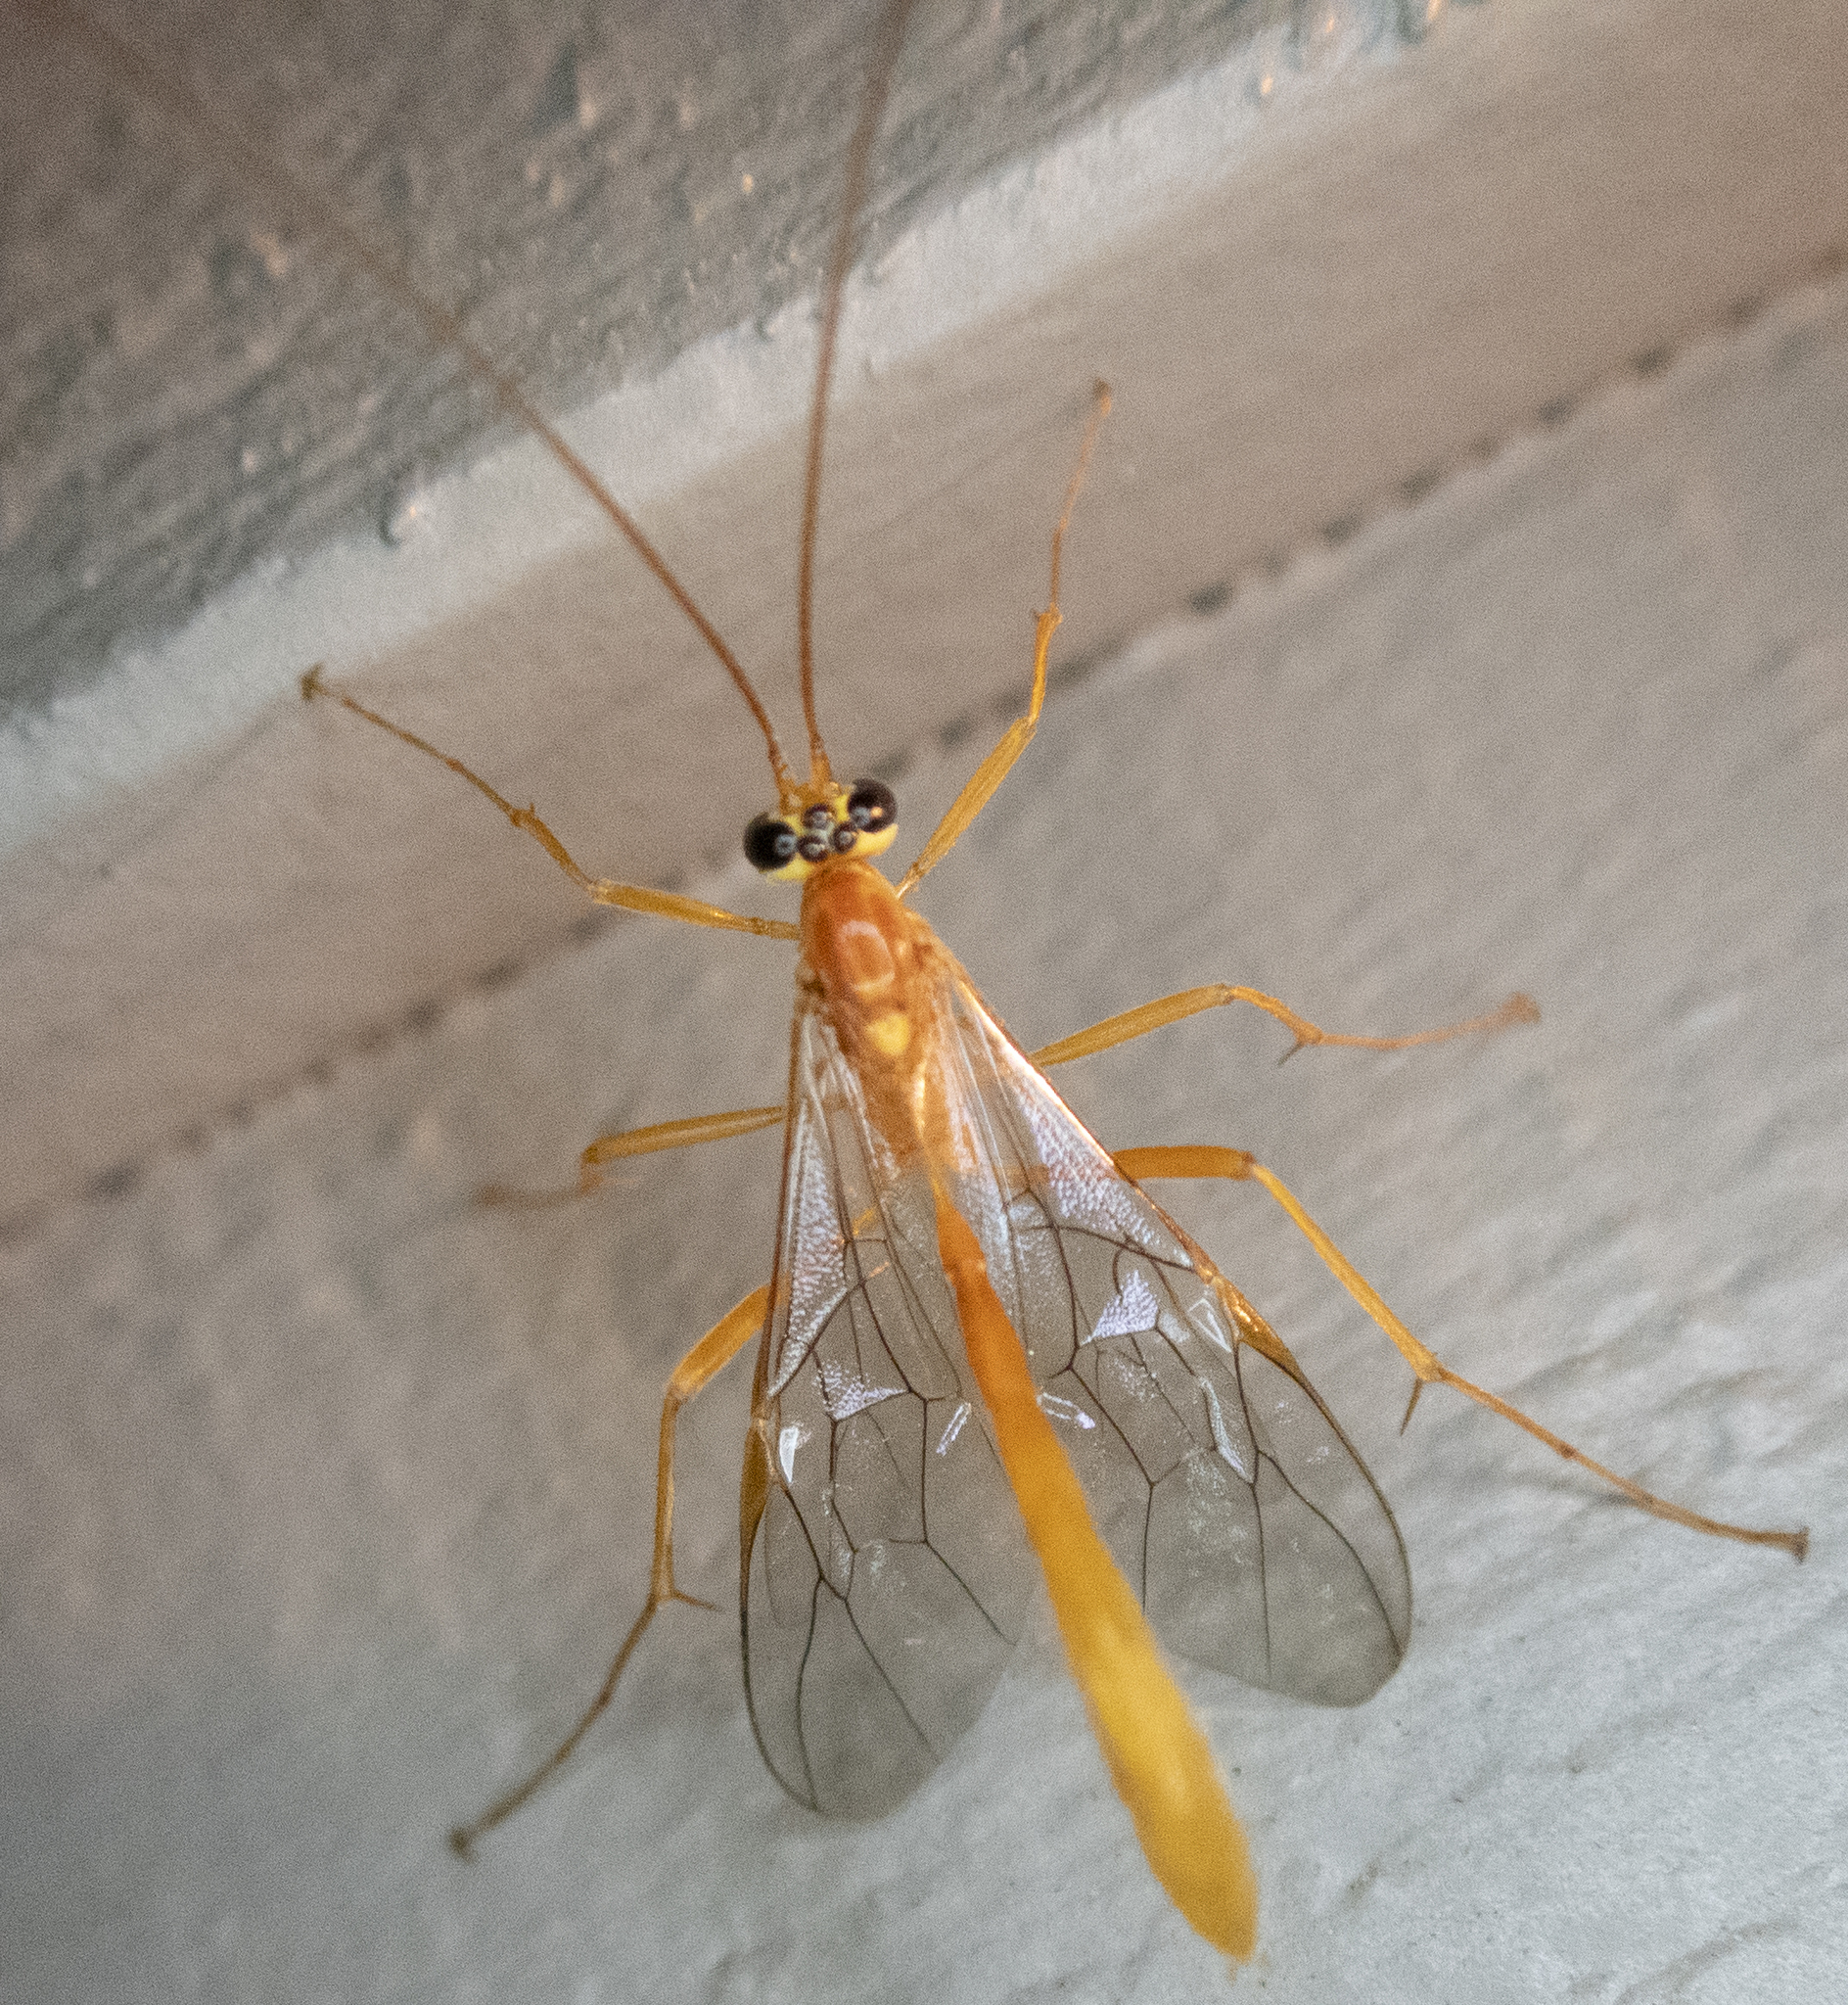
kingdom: Animalia
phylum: Arthropoda
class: Insecta
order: Hymenoptera
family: Ichneumonidae
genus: Ophion
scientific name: Ophion
